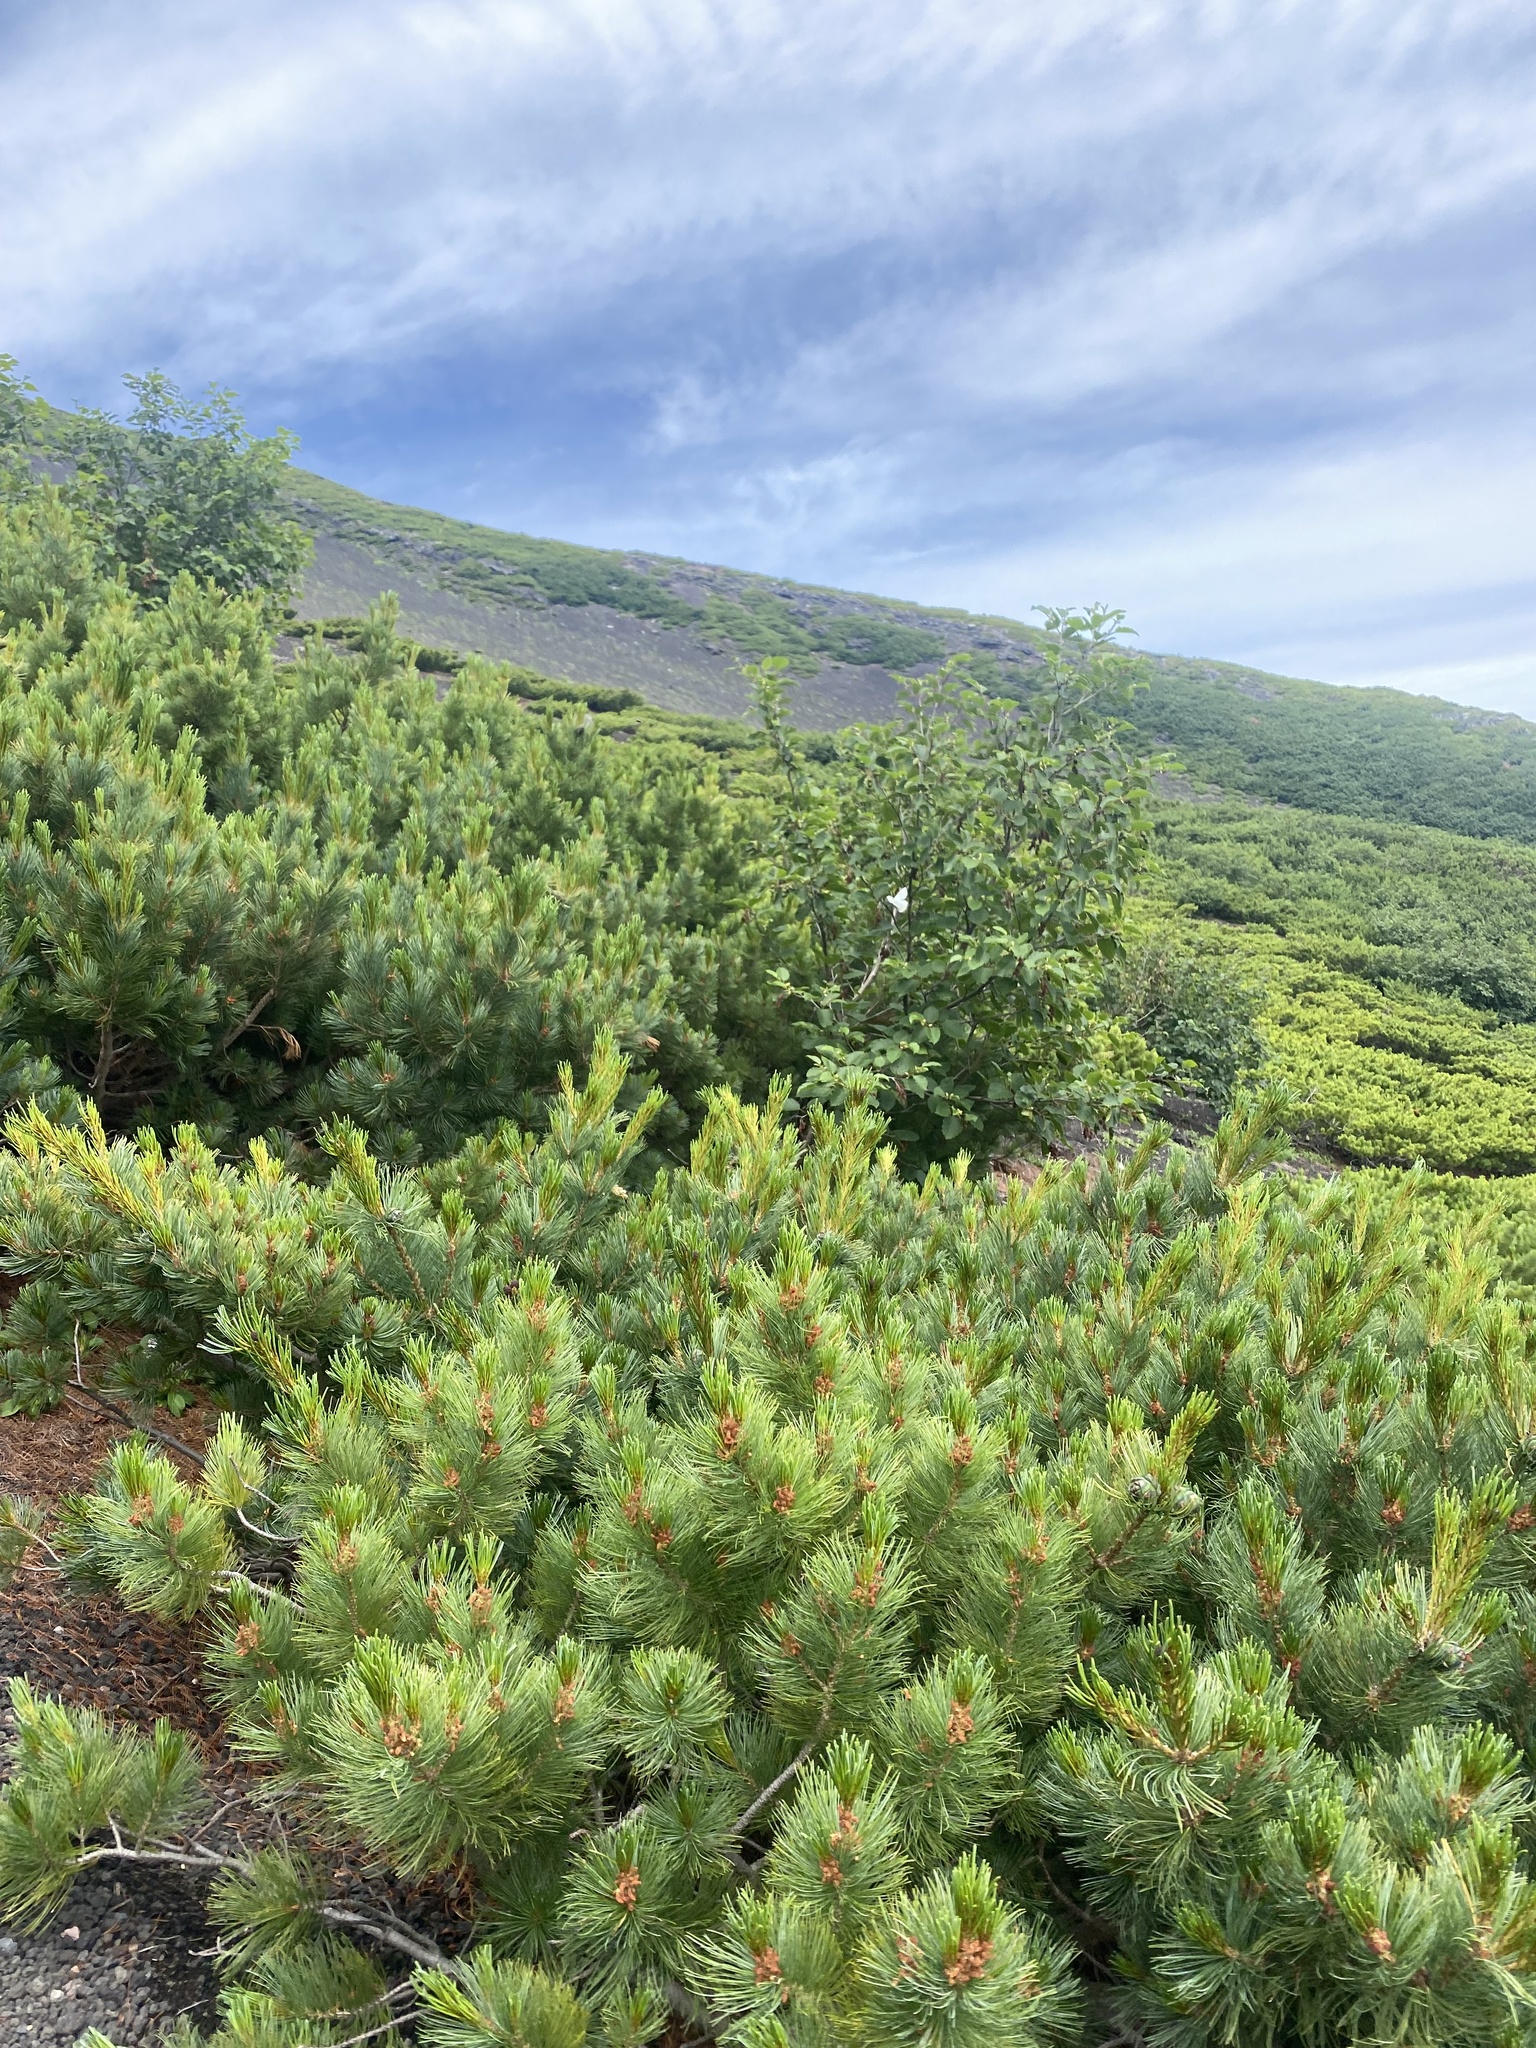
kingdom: Plantae
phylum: Tracheophyta
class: Pinopsida
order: Pinales
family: Pinaceae
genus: Pinus
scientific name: Pinus pumila
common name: Dwarf siberian pine
